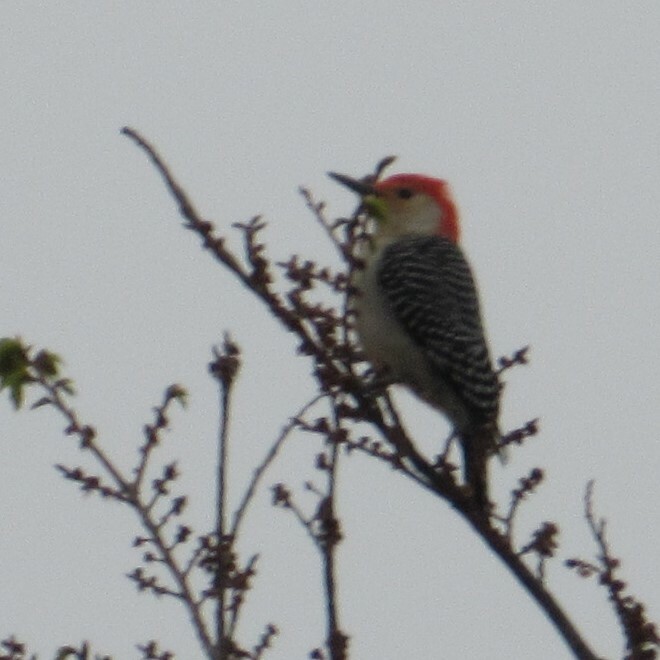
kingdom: Animalia
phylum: Chordata
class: Aves
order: Piciformes
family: Picidae
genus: Melanerpes
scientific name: Melanerpes carolinus
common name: Red-bellied woodpecker
